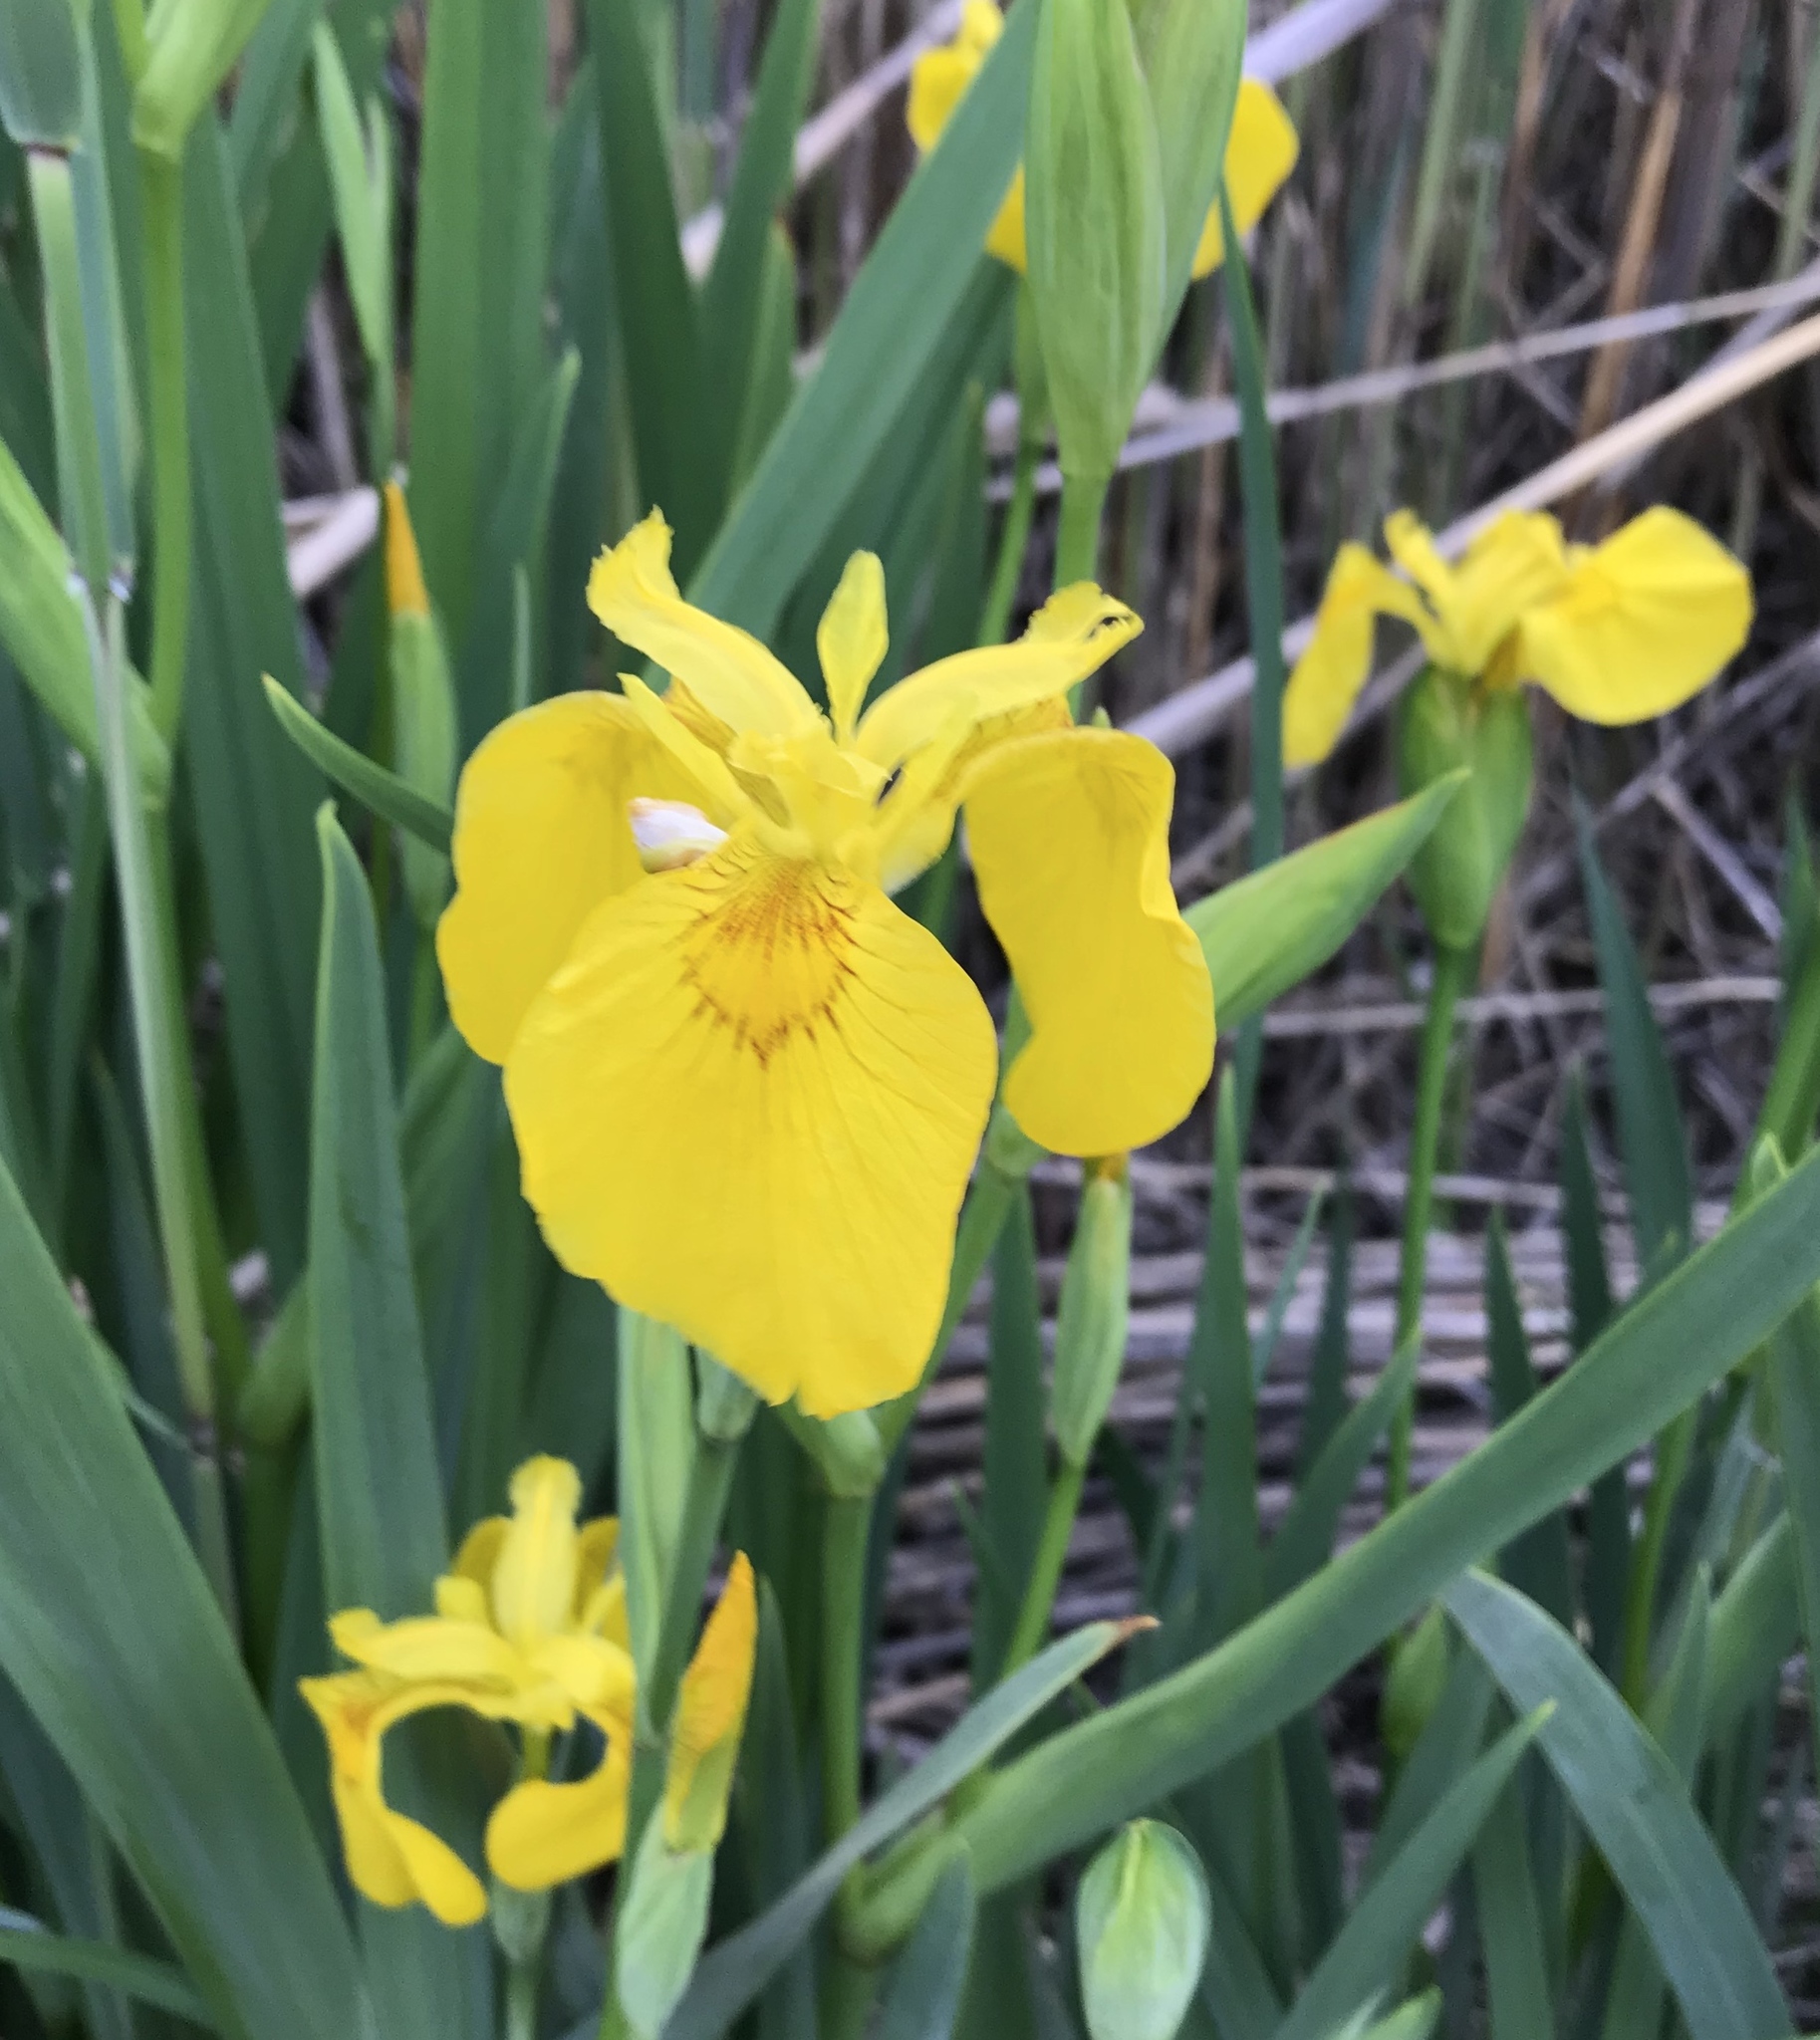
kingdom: Plantae
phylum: Tracheophyta
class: Liliopsida
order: Asparagales
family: Iridaceae
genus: Iris
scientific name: Iris pseudacorus
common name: Yellow flag
